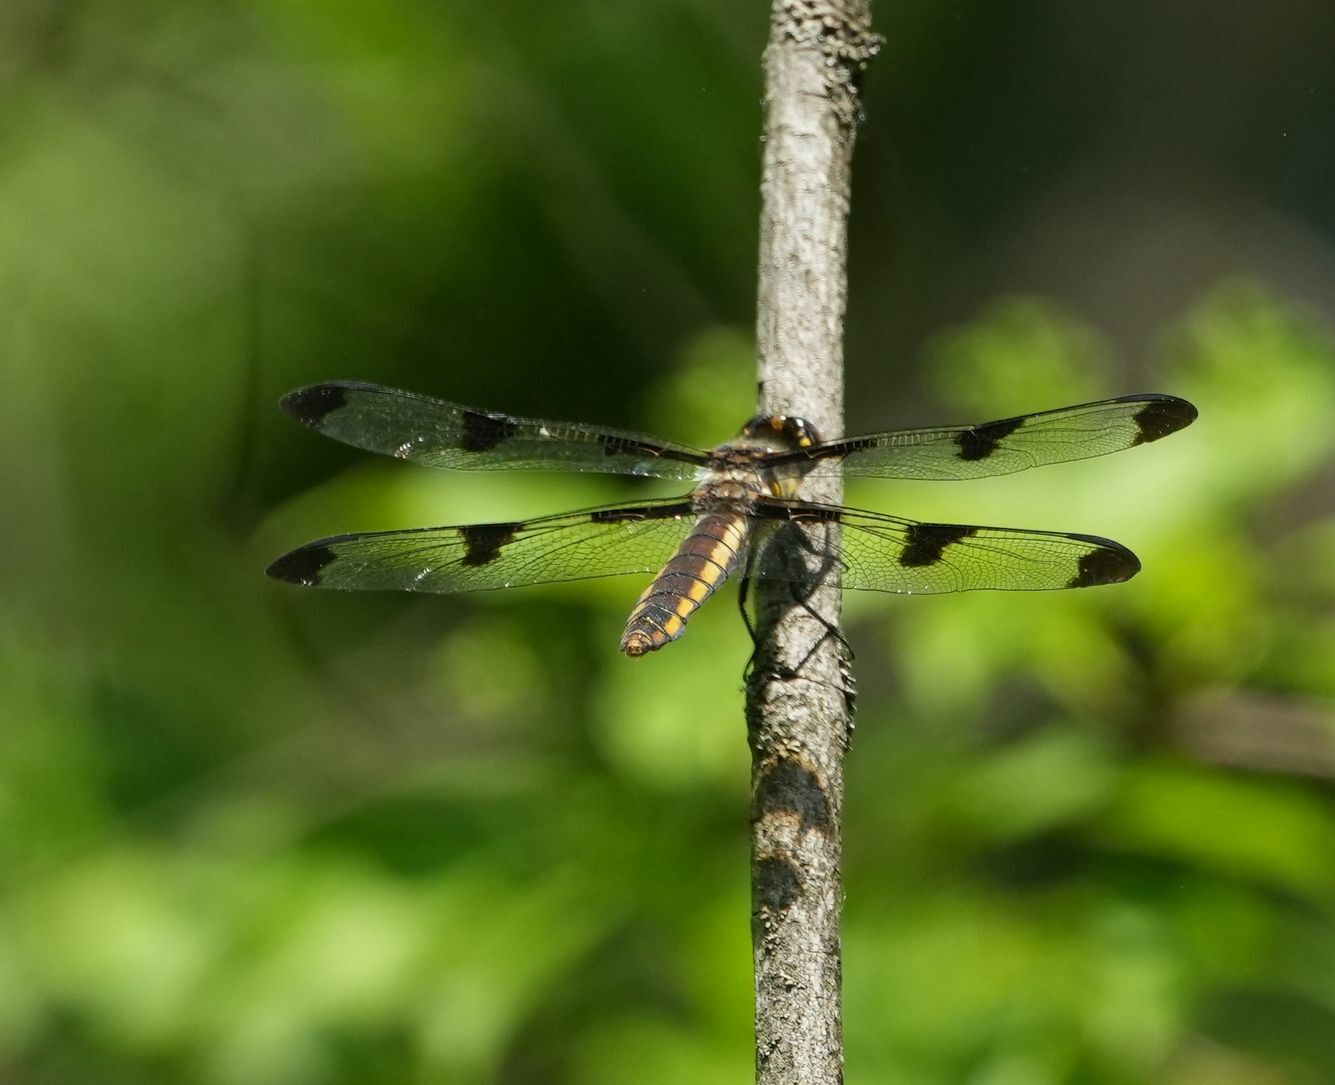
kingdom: Animalia
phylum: Arthropoda
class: Insecta
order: Odonata
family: Libellulidae
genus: Libellula
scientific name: Libellula pulchella
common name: Twelve-spotted skimmer
